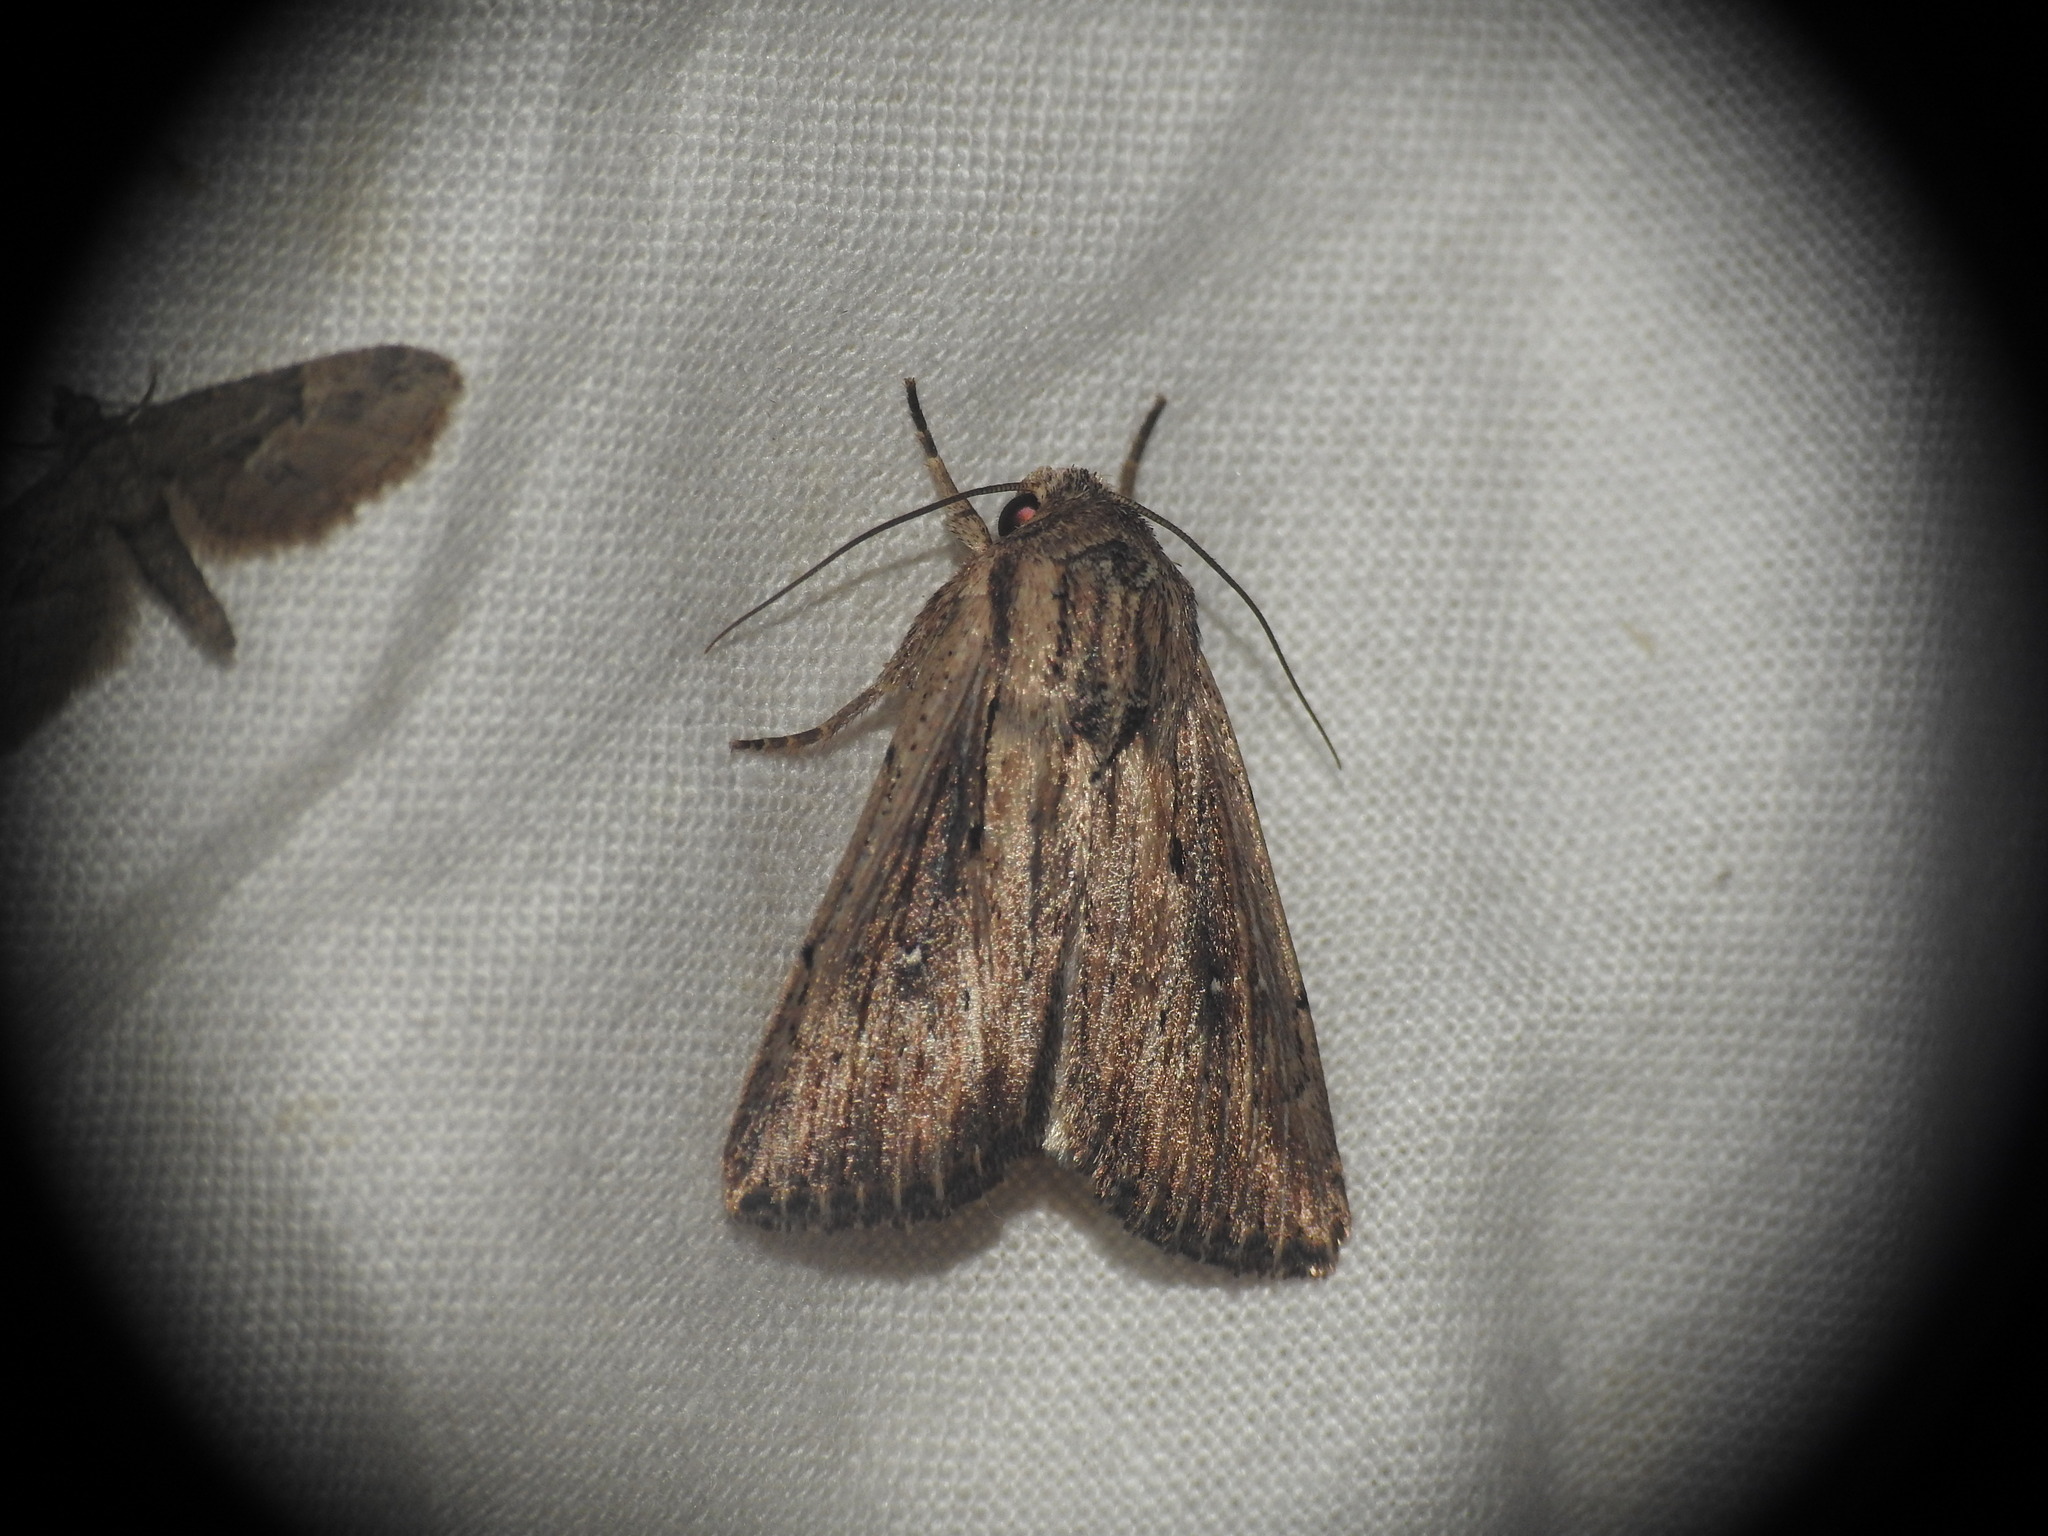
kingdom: Animalia
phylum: Arthropoda
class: Insecta
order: Lepidoptera
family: Noctuidae
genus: Leucania
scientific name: Leucania putrescens
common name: Devonshire wainscot
